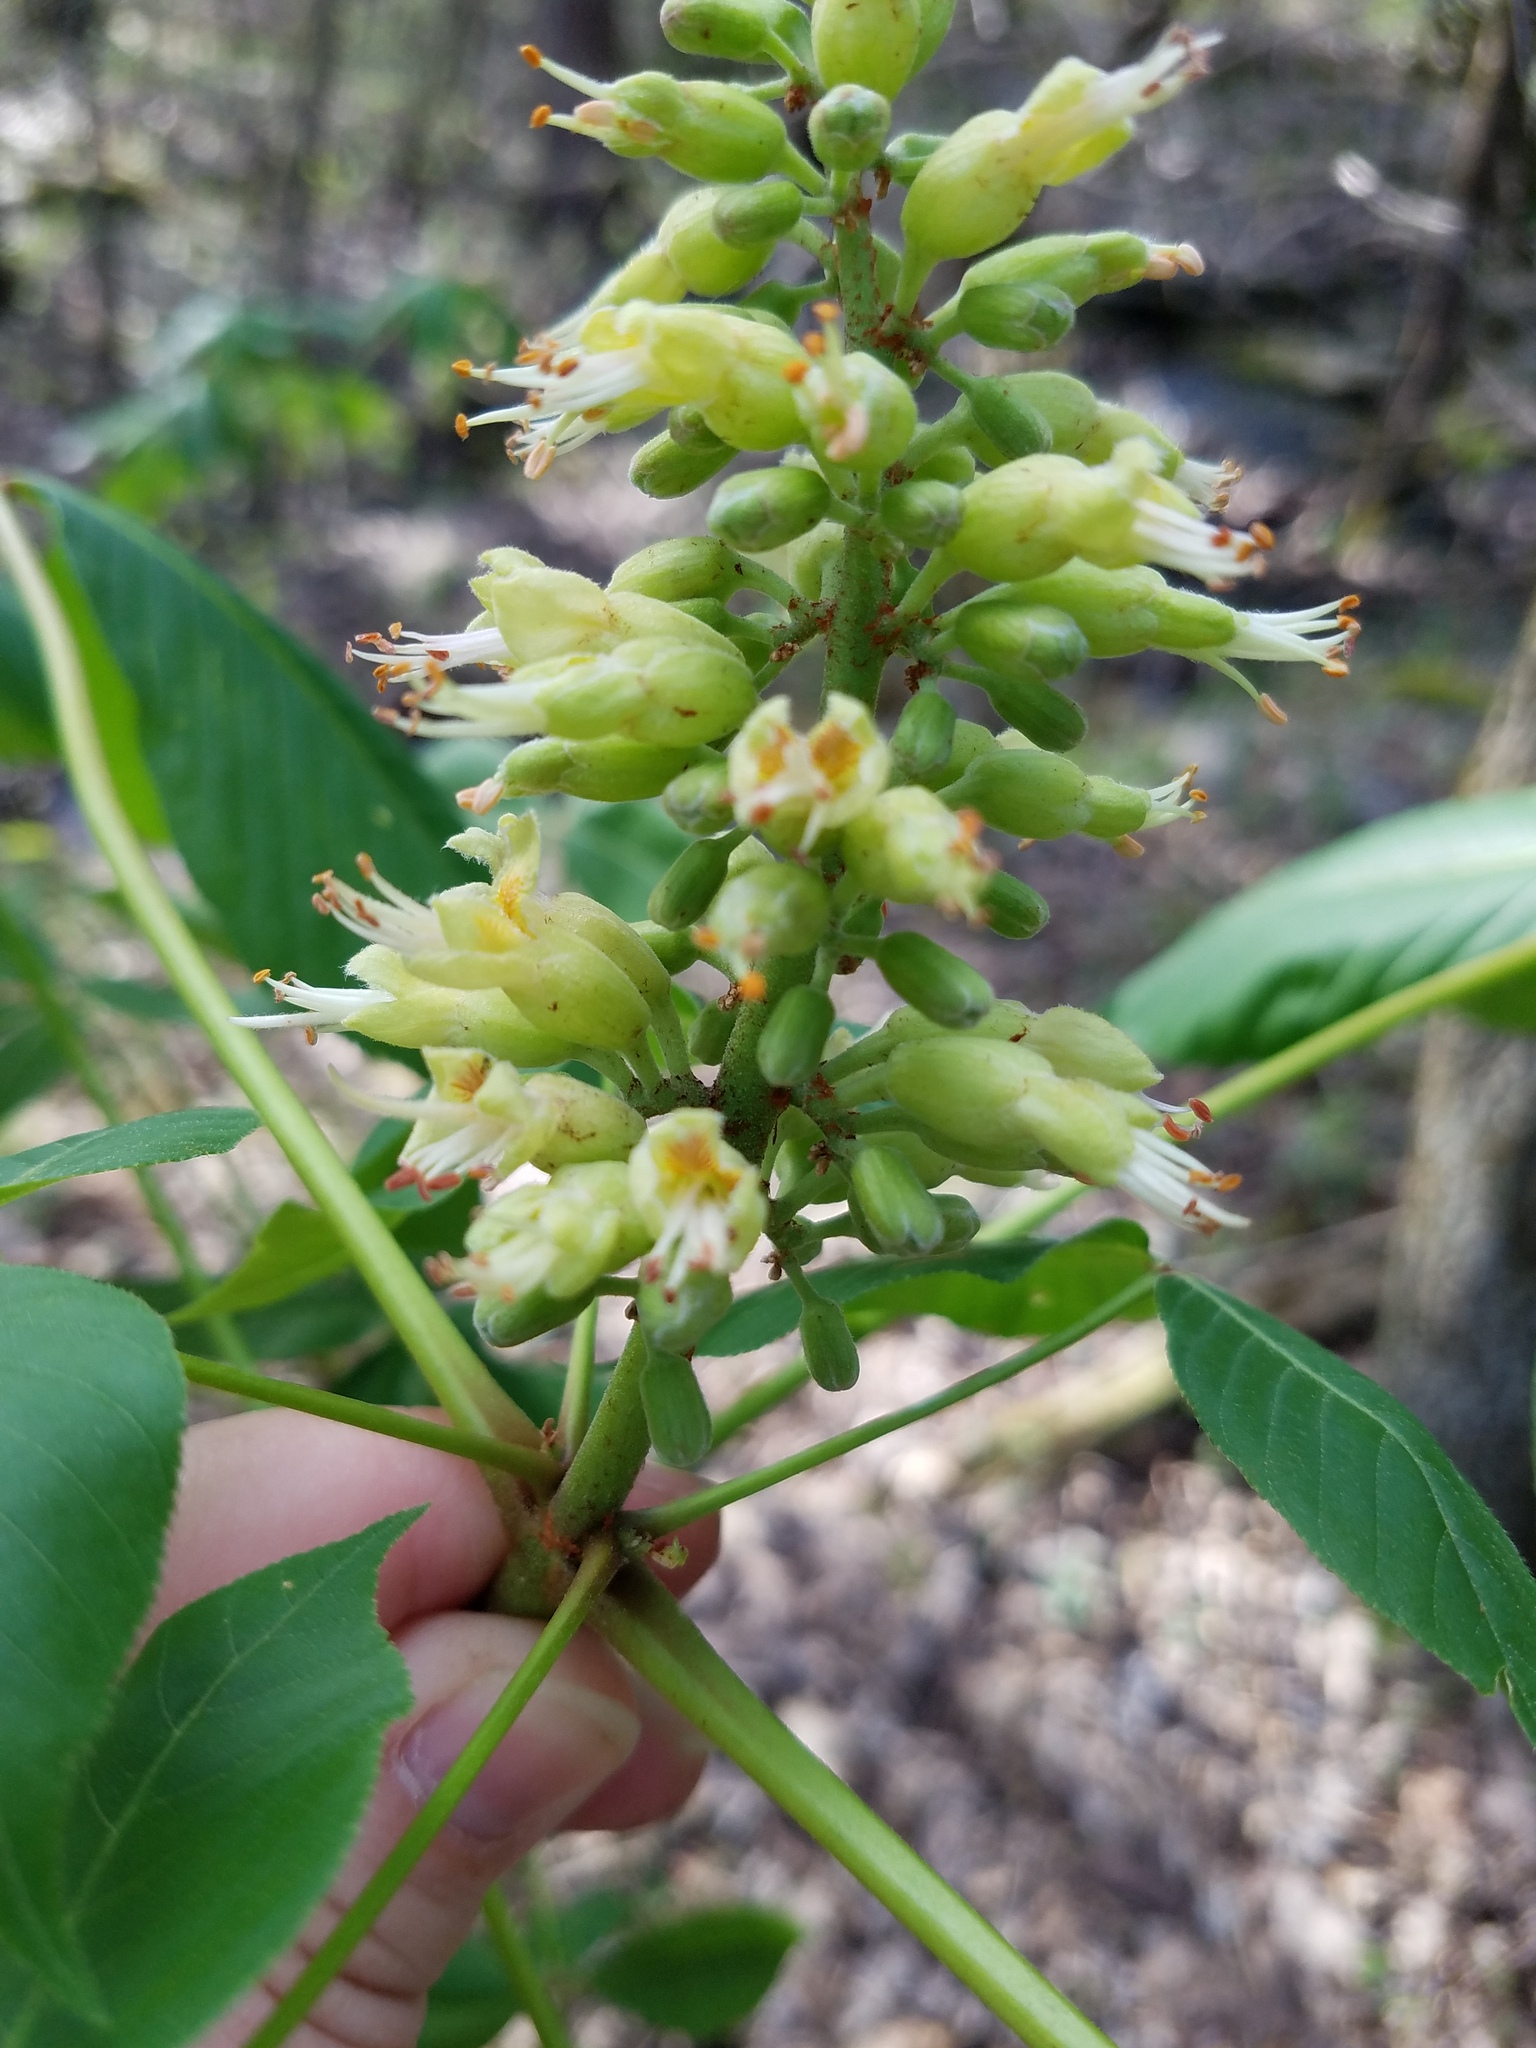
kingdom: Plantae
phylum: Tracheophyta
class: Magnoliopsida
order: Sapindales
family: Sapindaceae
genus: Aesculus
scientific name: Aesculus glabra
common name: Ohio buckeye
